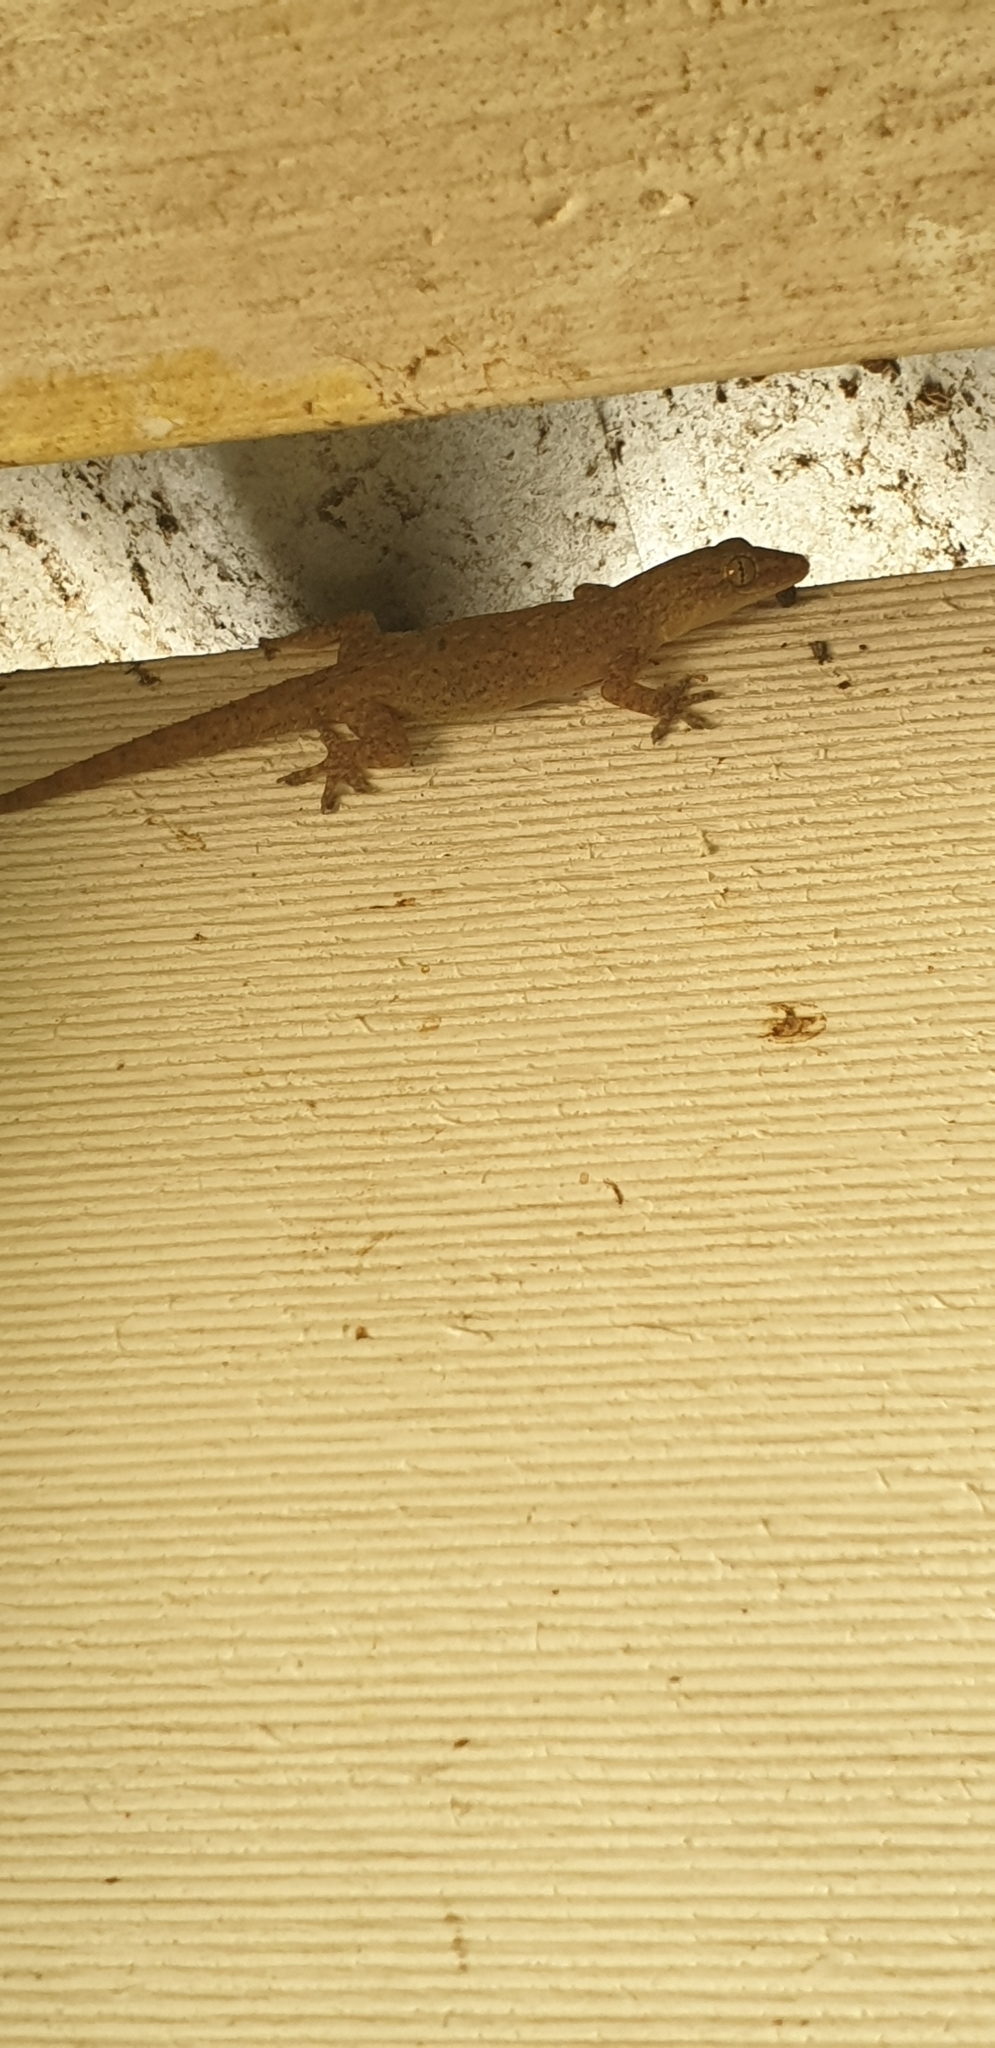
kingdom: Animalia
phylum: Chordata
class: Squamata
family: Gekkonidae
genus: Hemidactylus
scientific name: Hemidactylus frenatus
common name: Common house gecko
